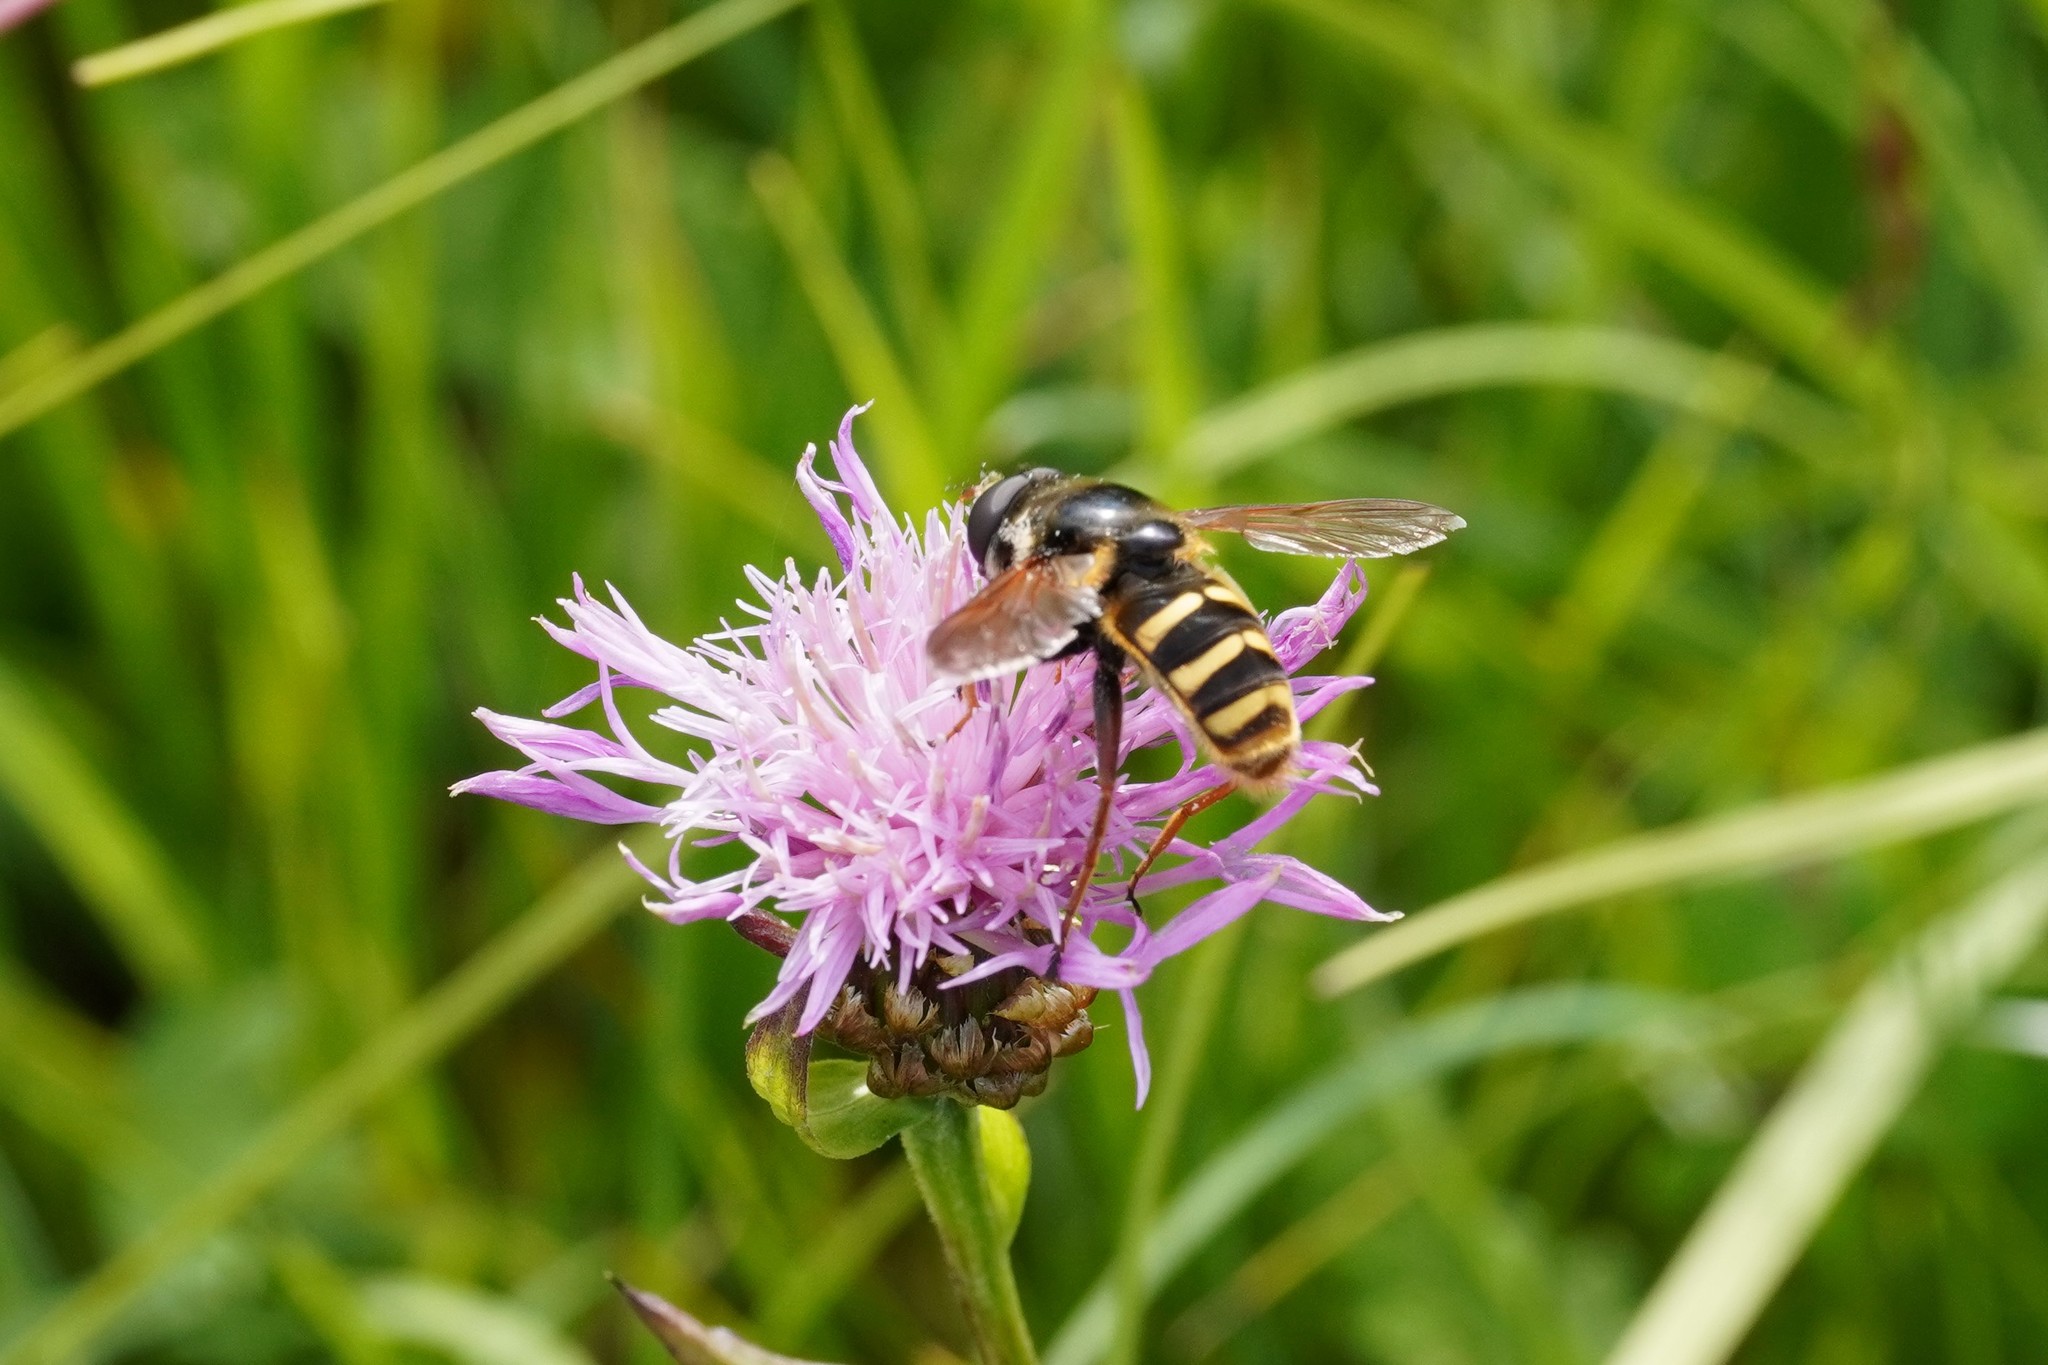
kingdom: Animalia
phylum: Arthropoda
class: Insecta
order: Diptera
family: Syrphidae
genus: Sericomyia
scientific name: Sericomyia silentis
